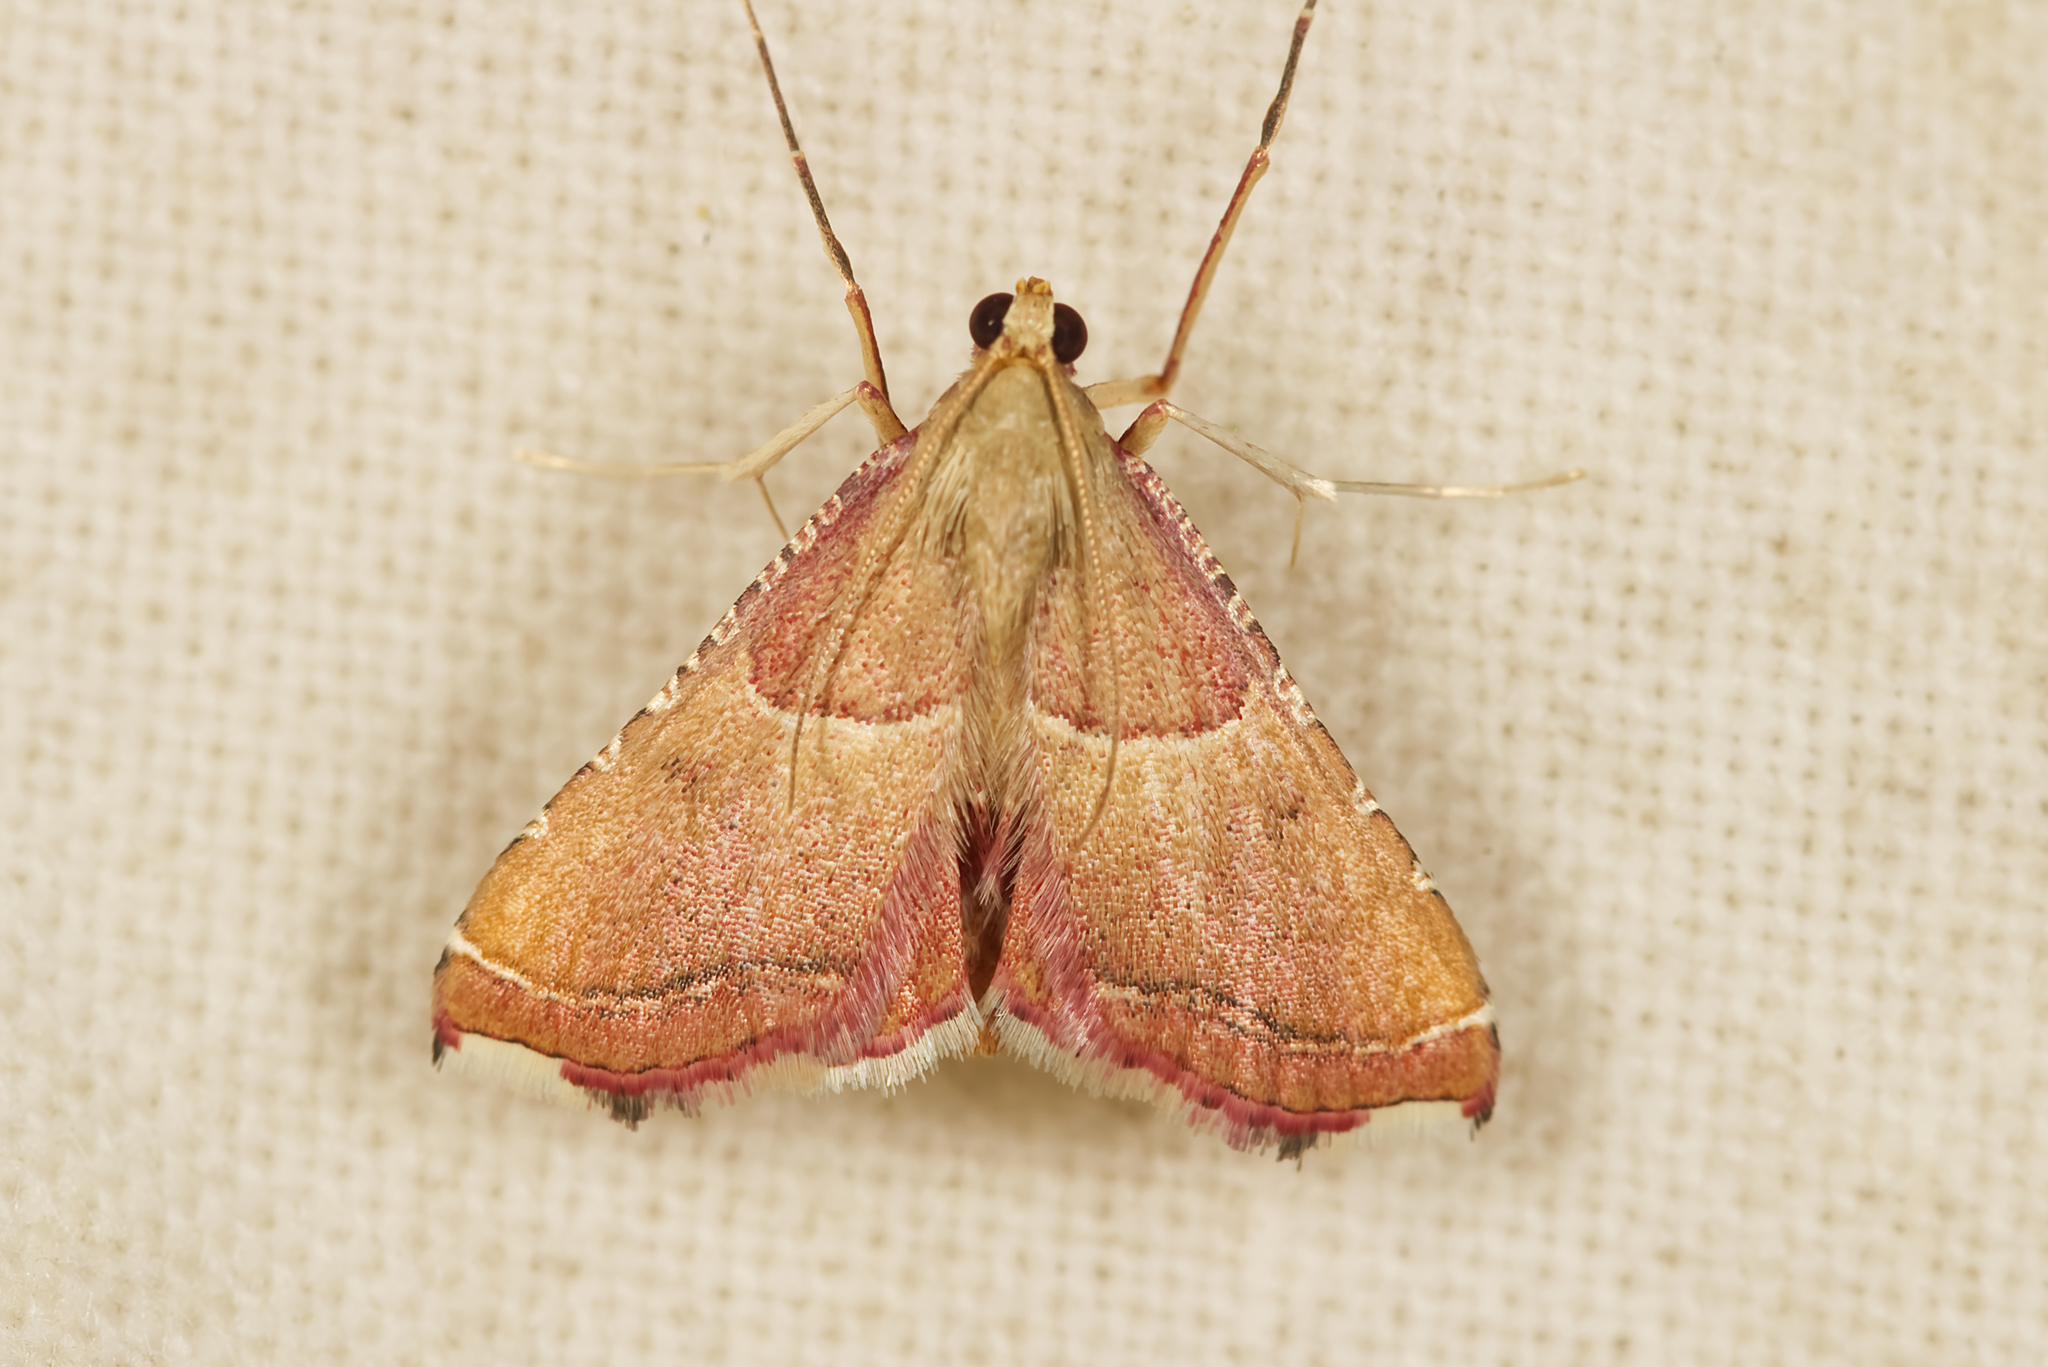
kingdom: Animalia
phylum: Arthropoda
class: Insecta
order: Lepidoptera
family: Pyralidae
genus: Endotricha
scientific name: Endotricha flammealis
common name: Rosy tabby
